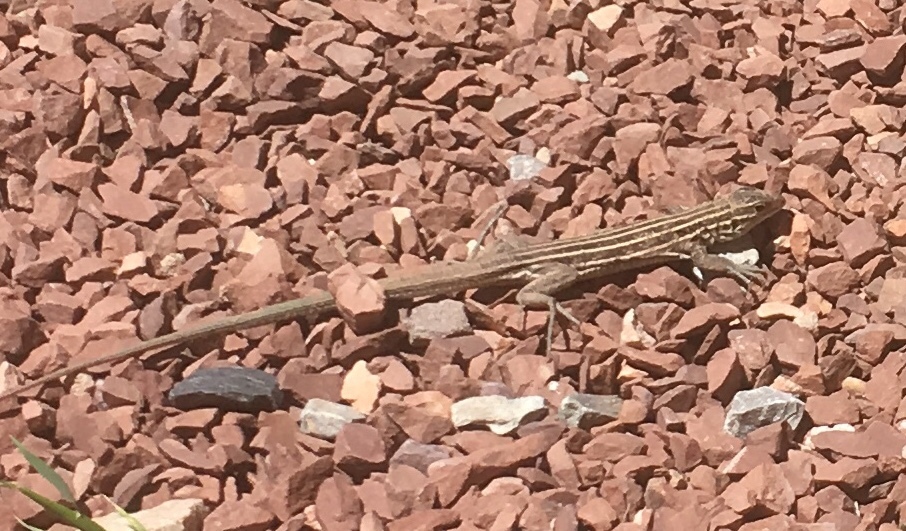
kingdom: Animalia
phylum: Chordata
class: Squamata
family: Teiidae
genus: Aspidoscelis
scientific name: Aspidoscelis velox
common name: Plateau striped whiptail
